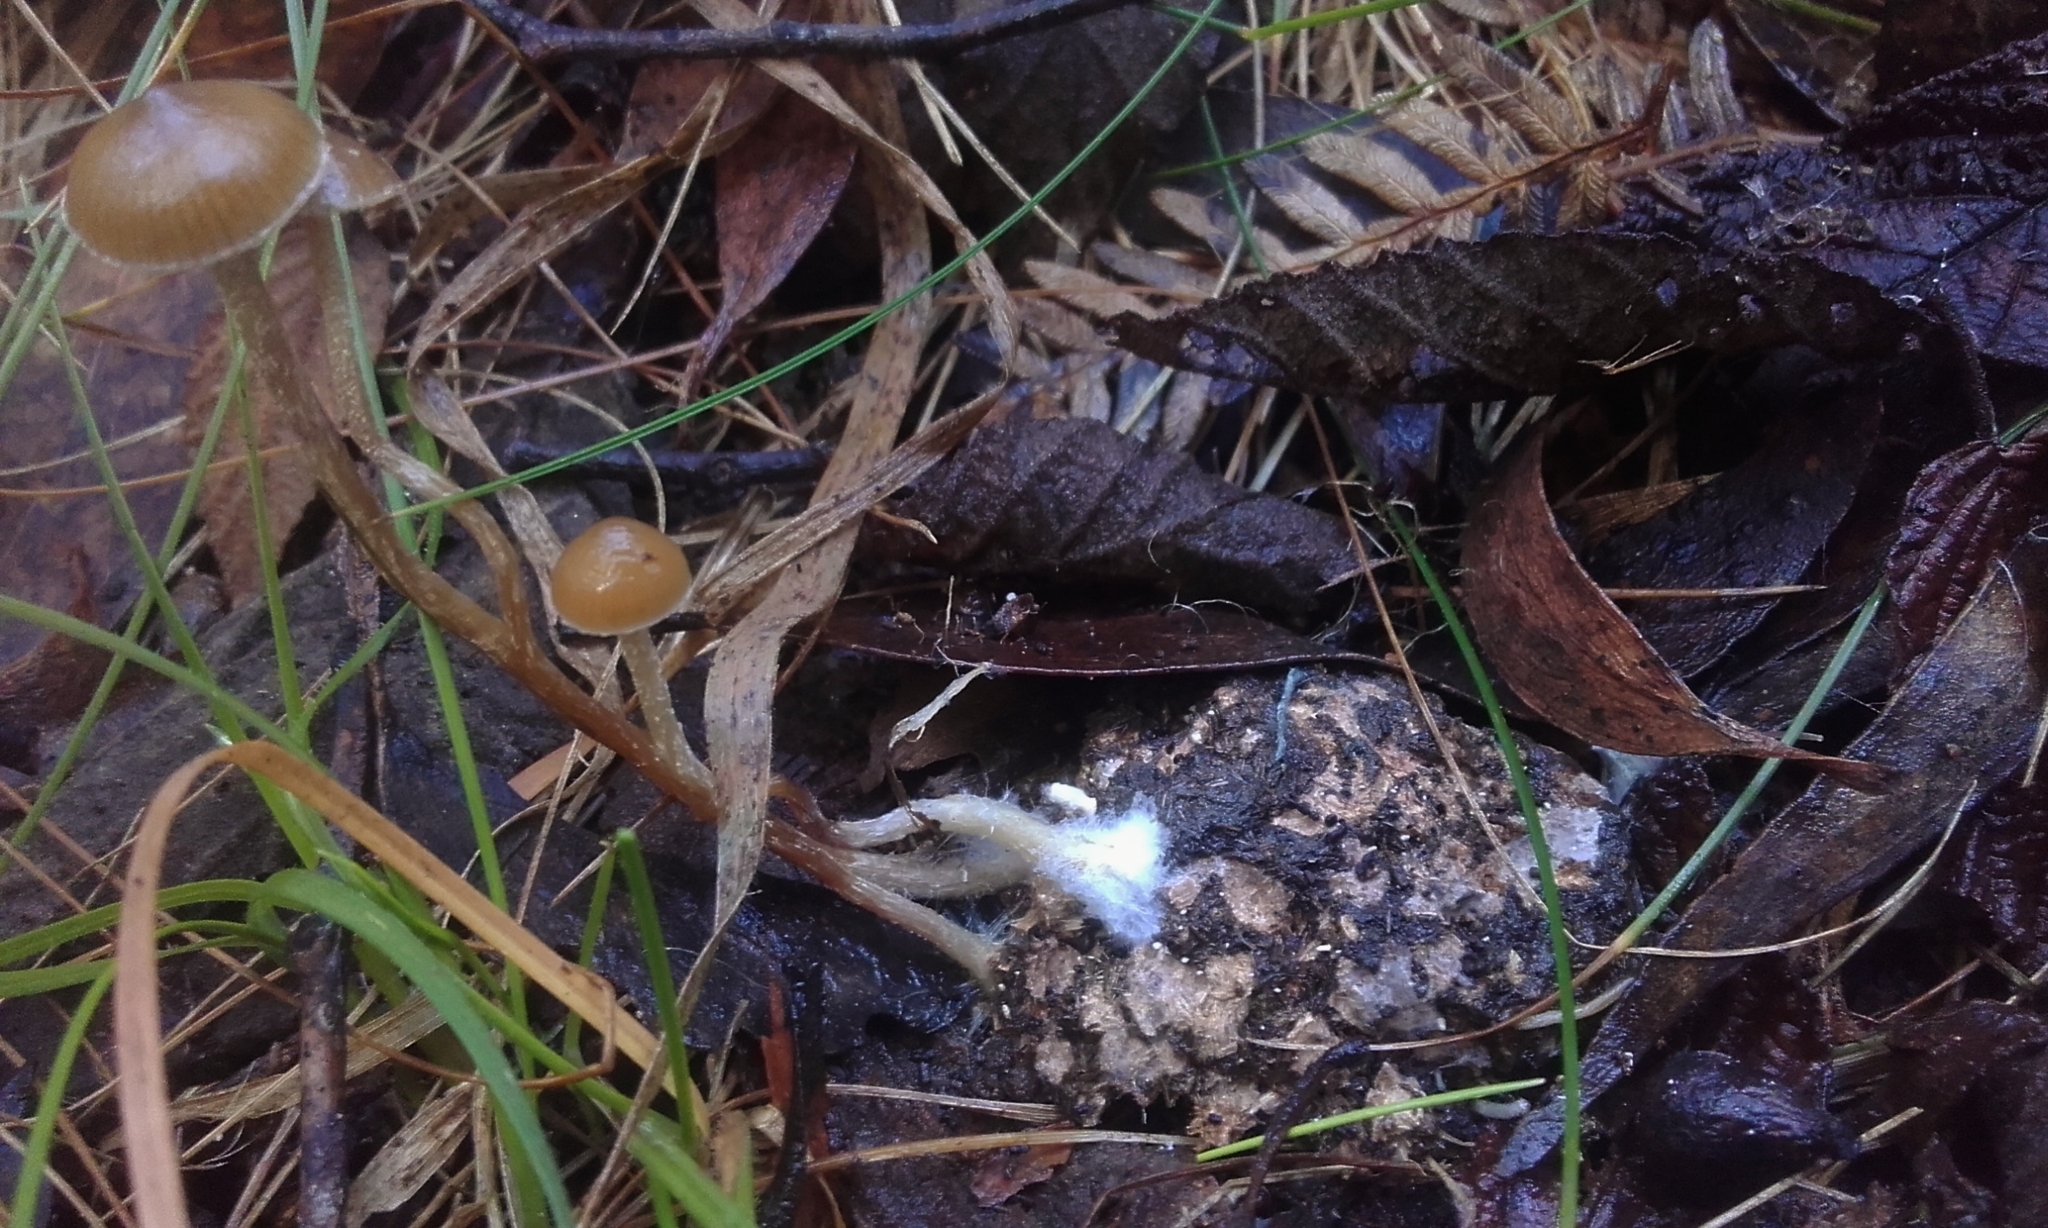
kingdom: Fungi
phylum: Basidiomycota
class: Agaricomycetes
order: Agaricales
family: Hymenogastraceae
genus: Psilocybe
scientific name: Psilocybe alutacea
